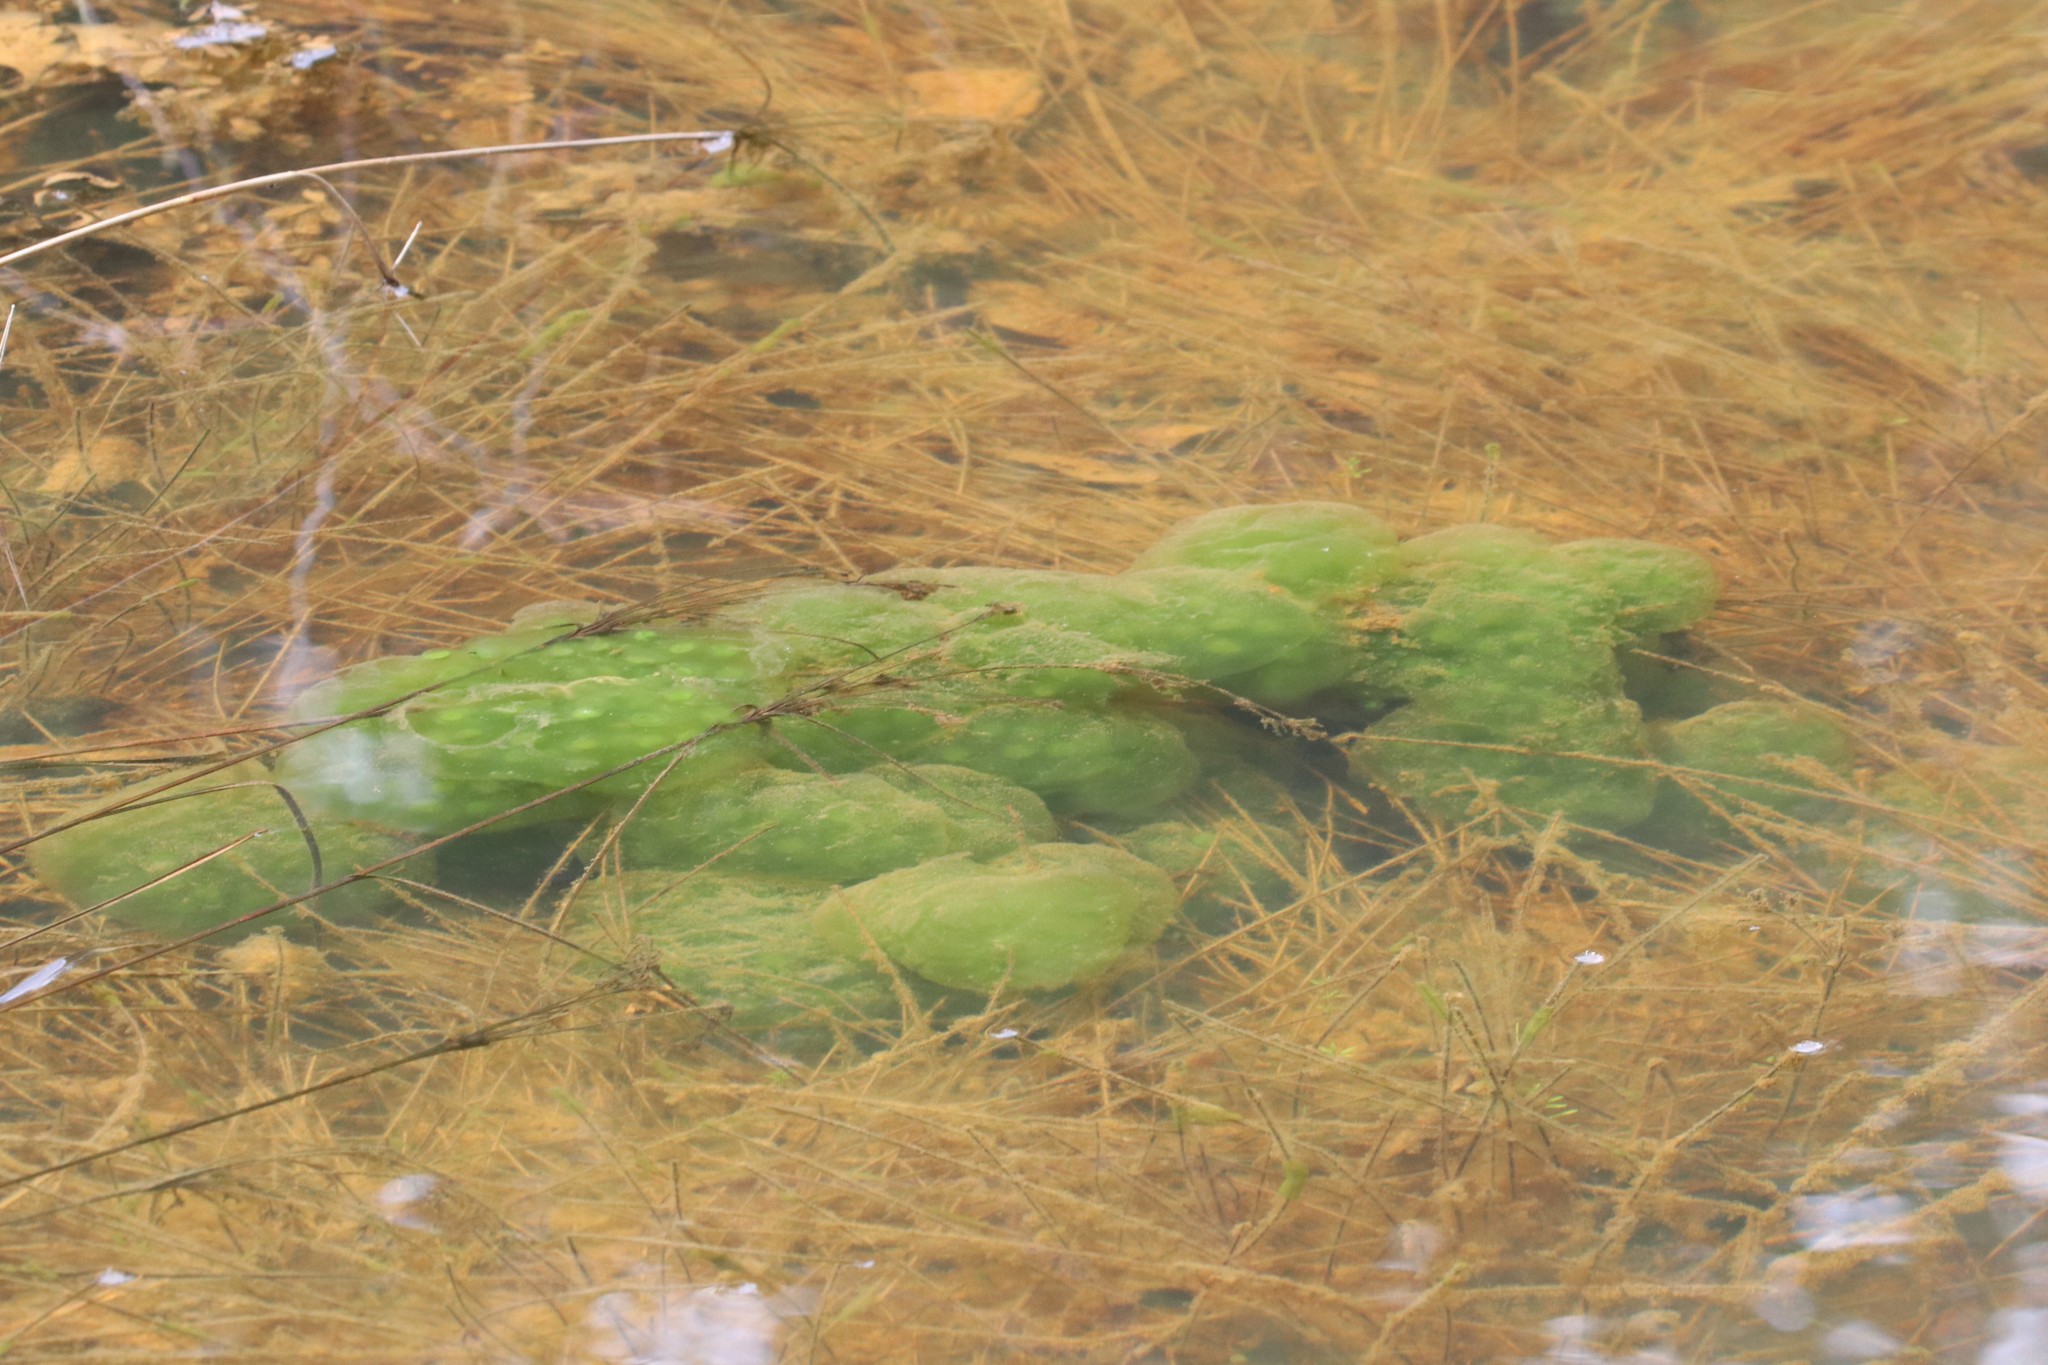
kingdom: Animalia
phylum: Chordata
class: Amphibia
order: Caudata
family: Ambystomatidae
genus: Ambystoma
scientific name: Ambystoma maculatum
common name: Spotted salamander
